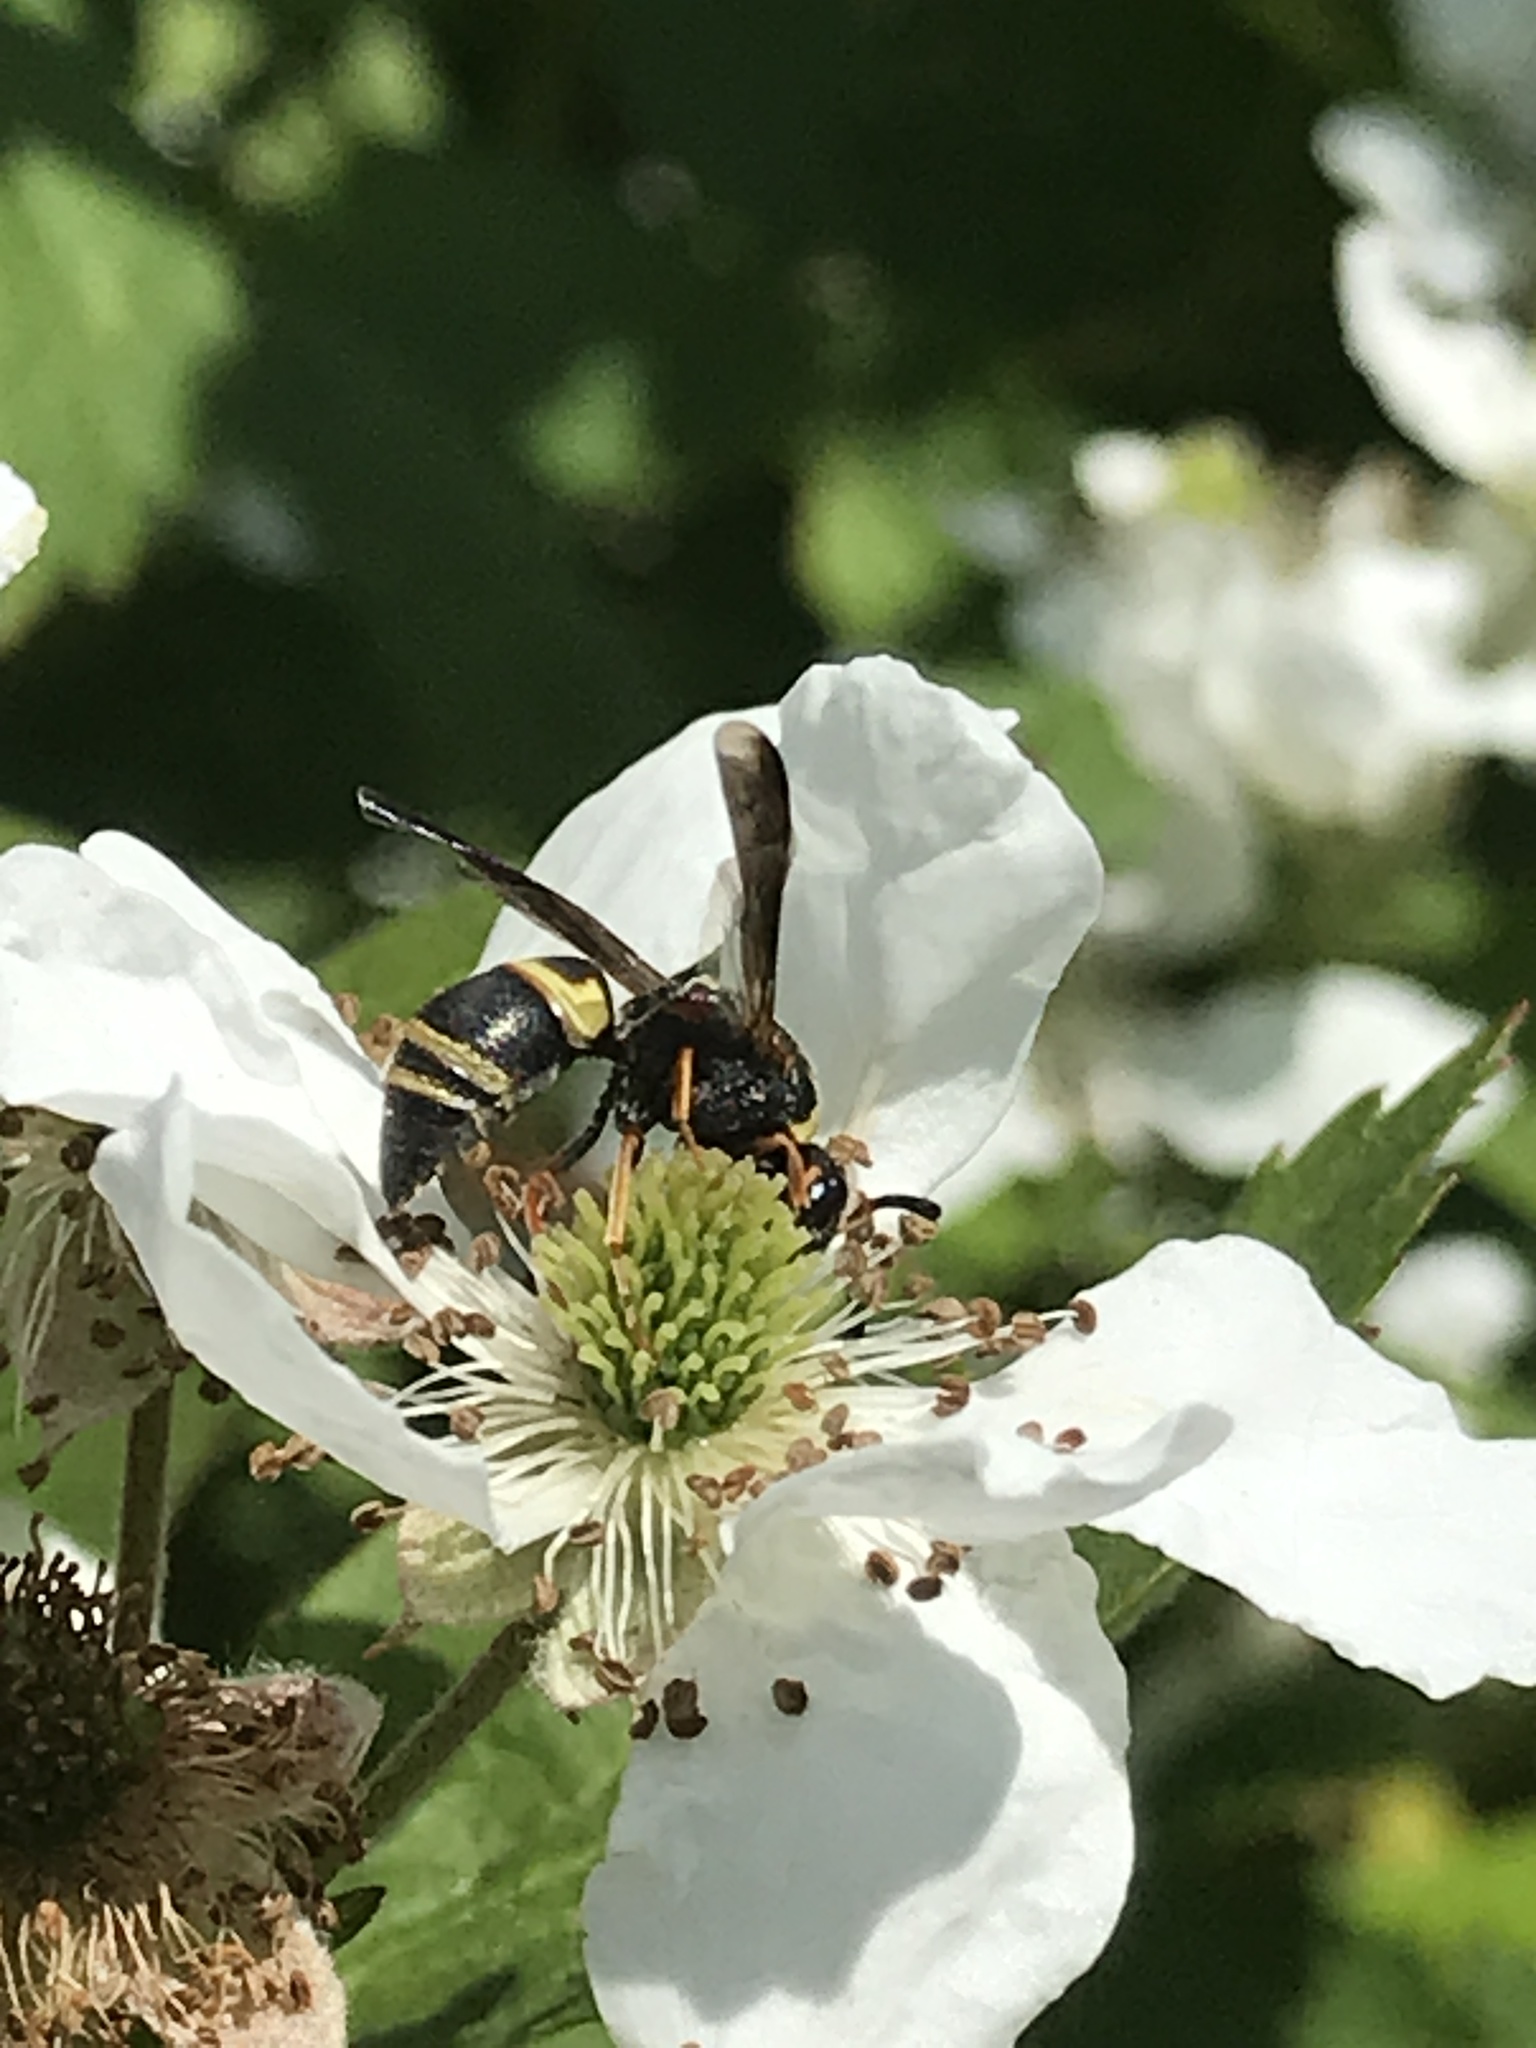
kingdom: Animalia
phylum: Arthropoda
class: Insecta
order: Hymenoptera
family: Eumenidae
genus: Euodynerus
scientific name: Euodynerus hidalgo
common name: Wasp
